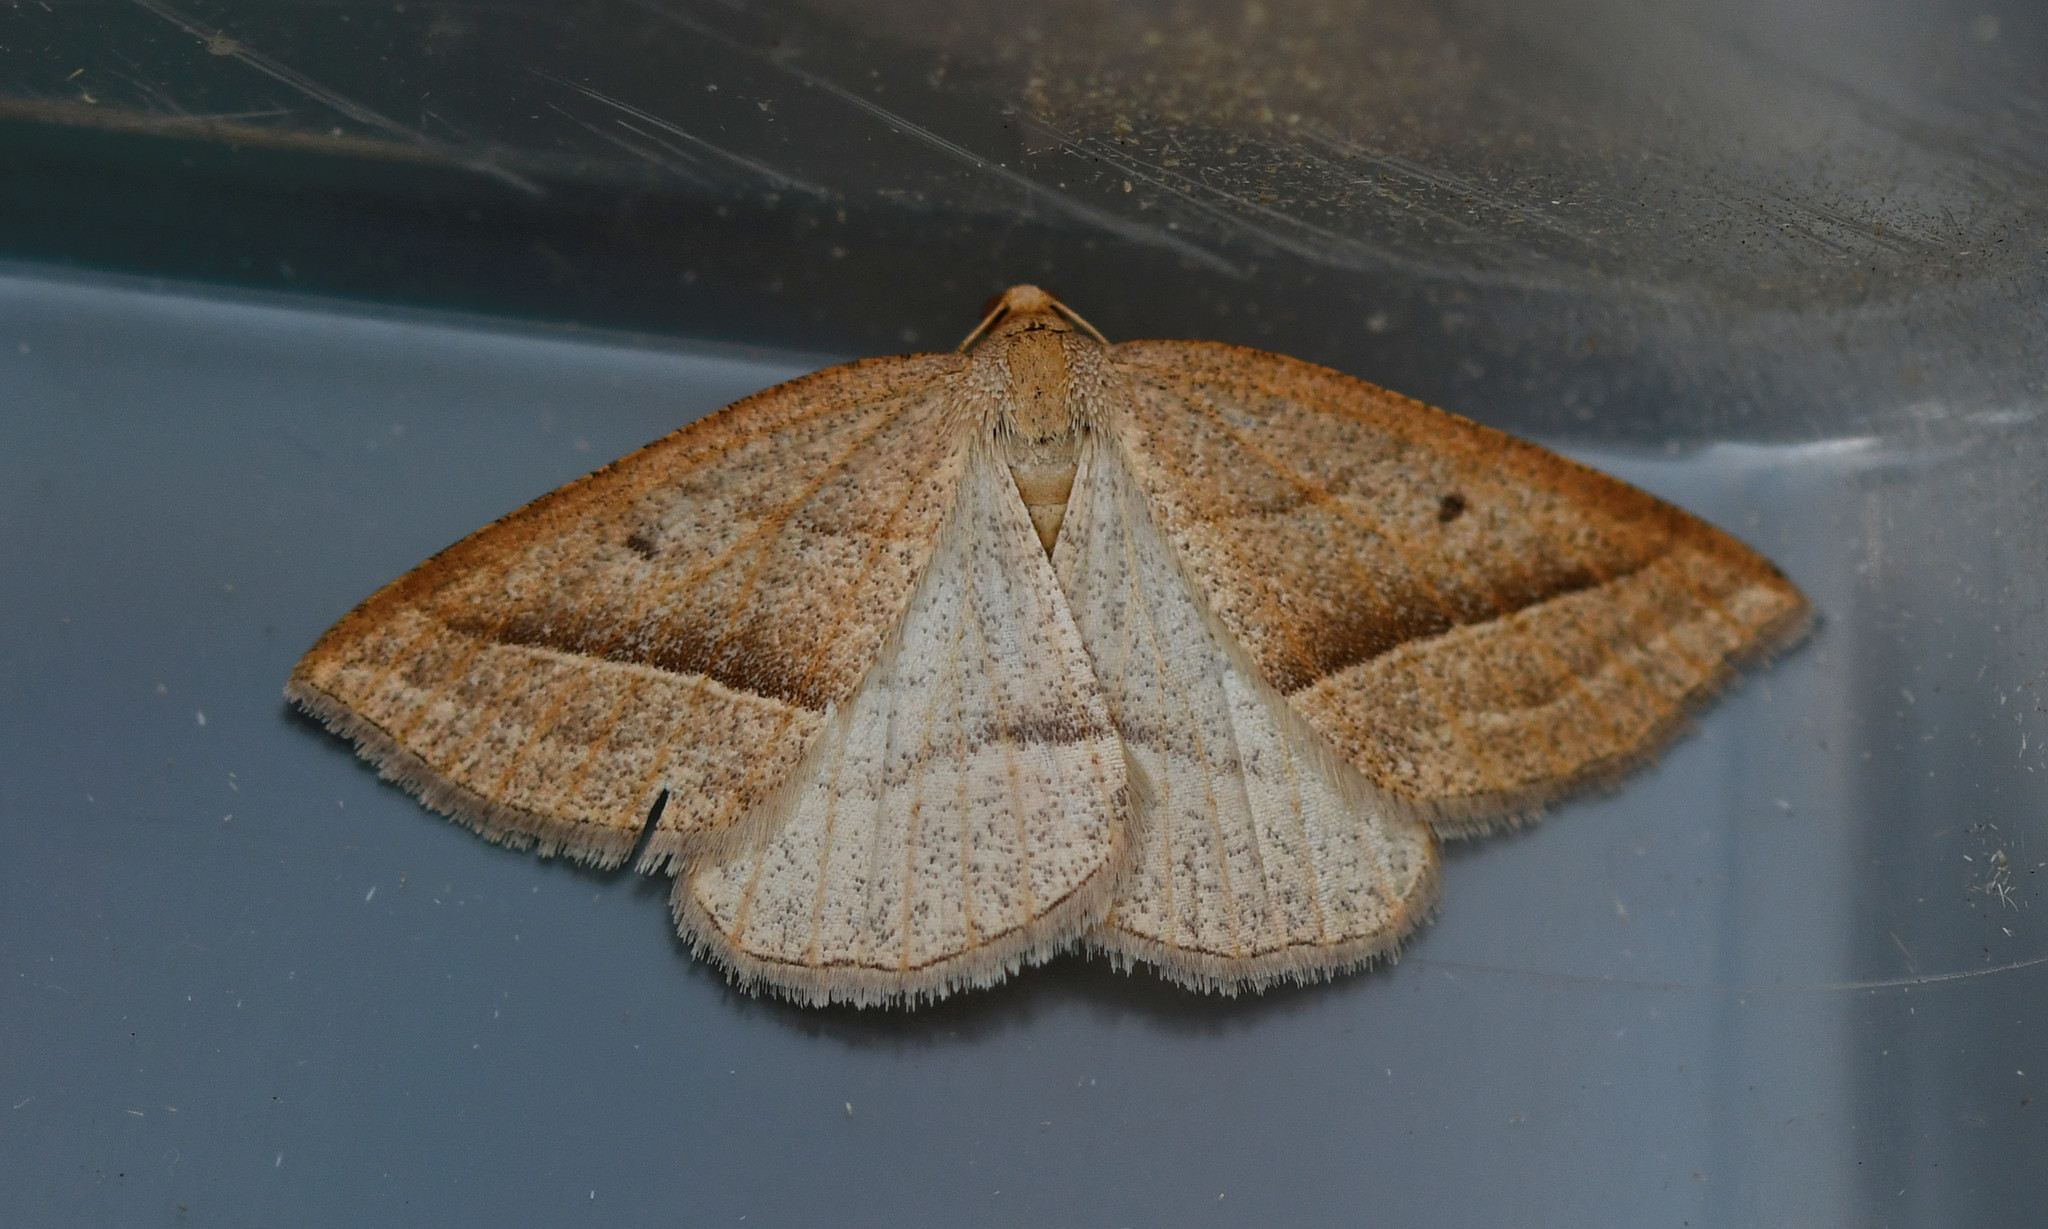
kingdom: Animalia
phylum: Arthropoda
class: Insecta
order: Lepidoptera
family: Pterophoridae
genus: Pterophorus
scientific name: Pterophorus Petrophora chlorosata
